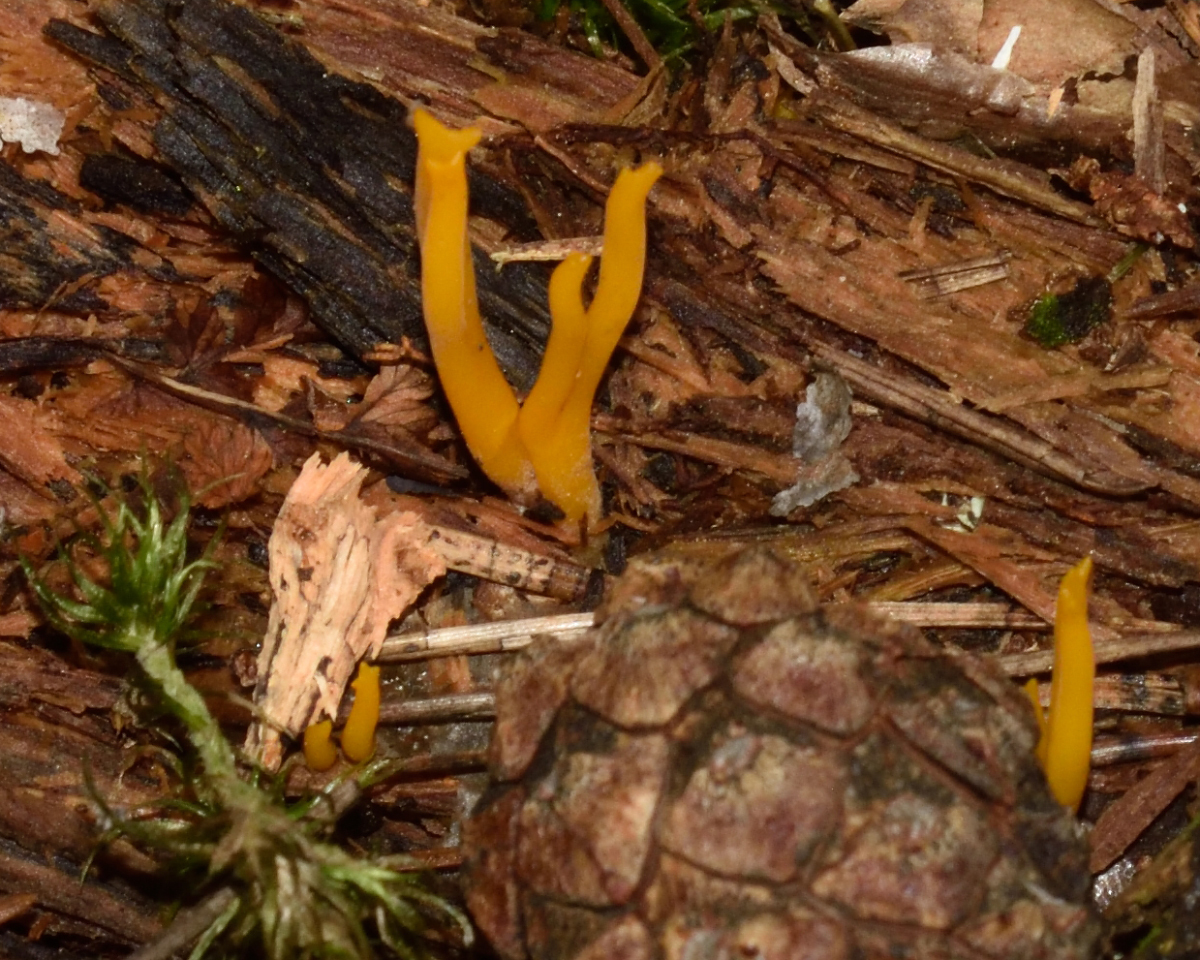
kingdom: Fungi
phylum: Basidiomycota
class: Dacrymycetes
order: Dacrymycetales
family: Dacrymycetaceae
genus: Calocera
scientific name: Calocera viscosa
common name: Yellow stagshorn
